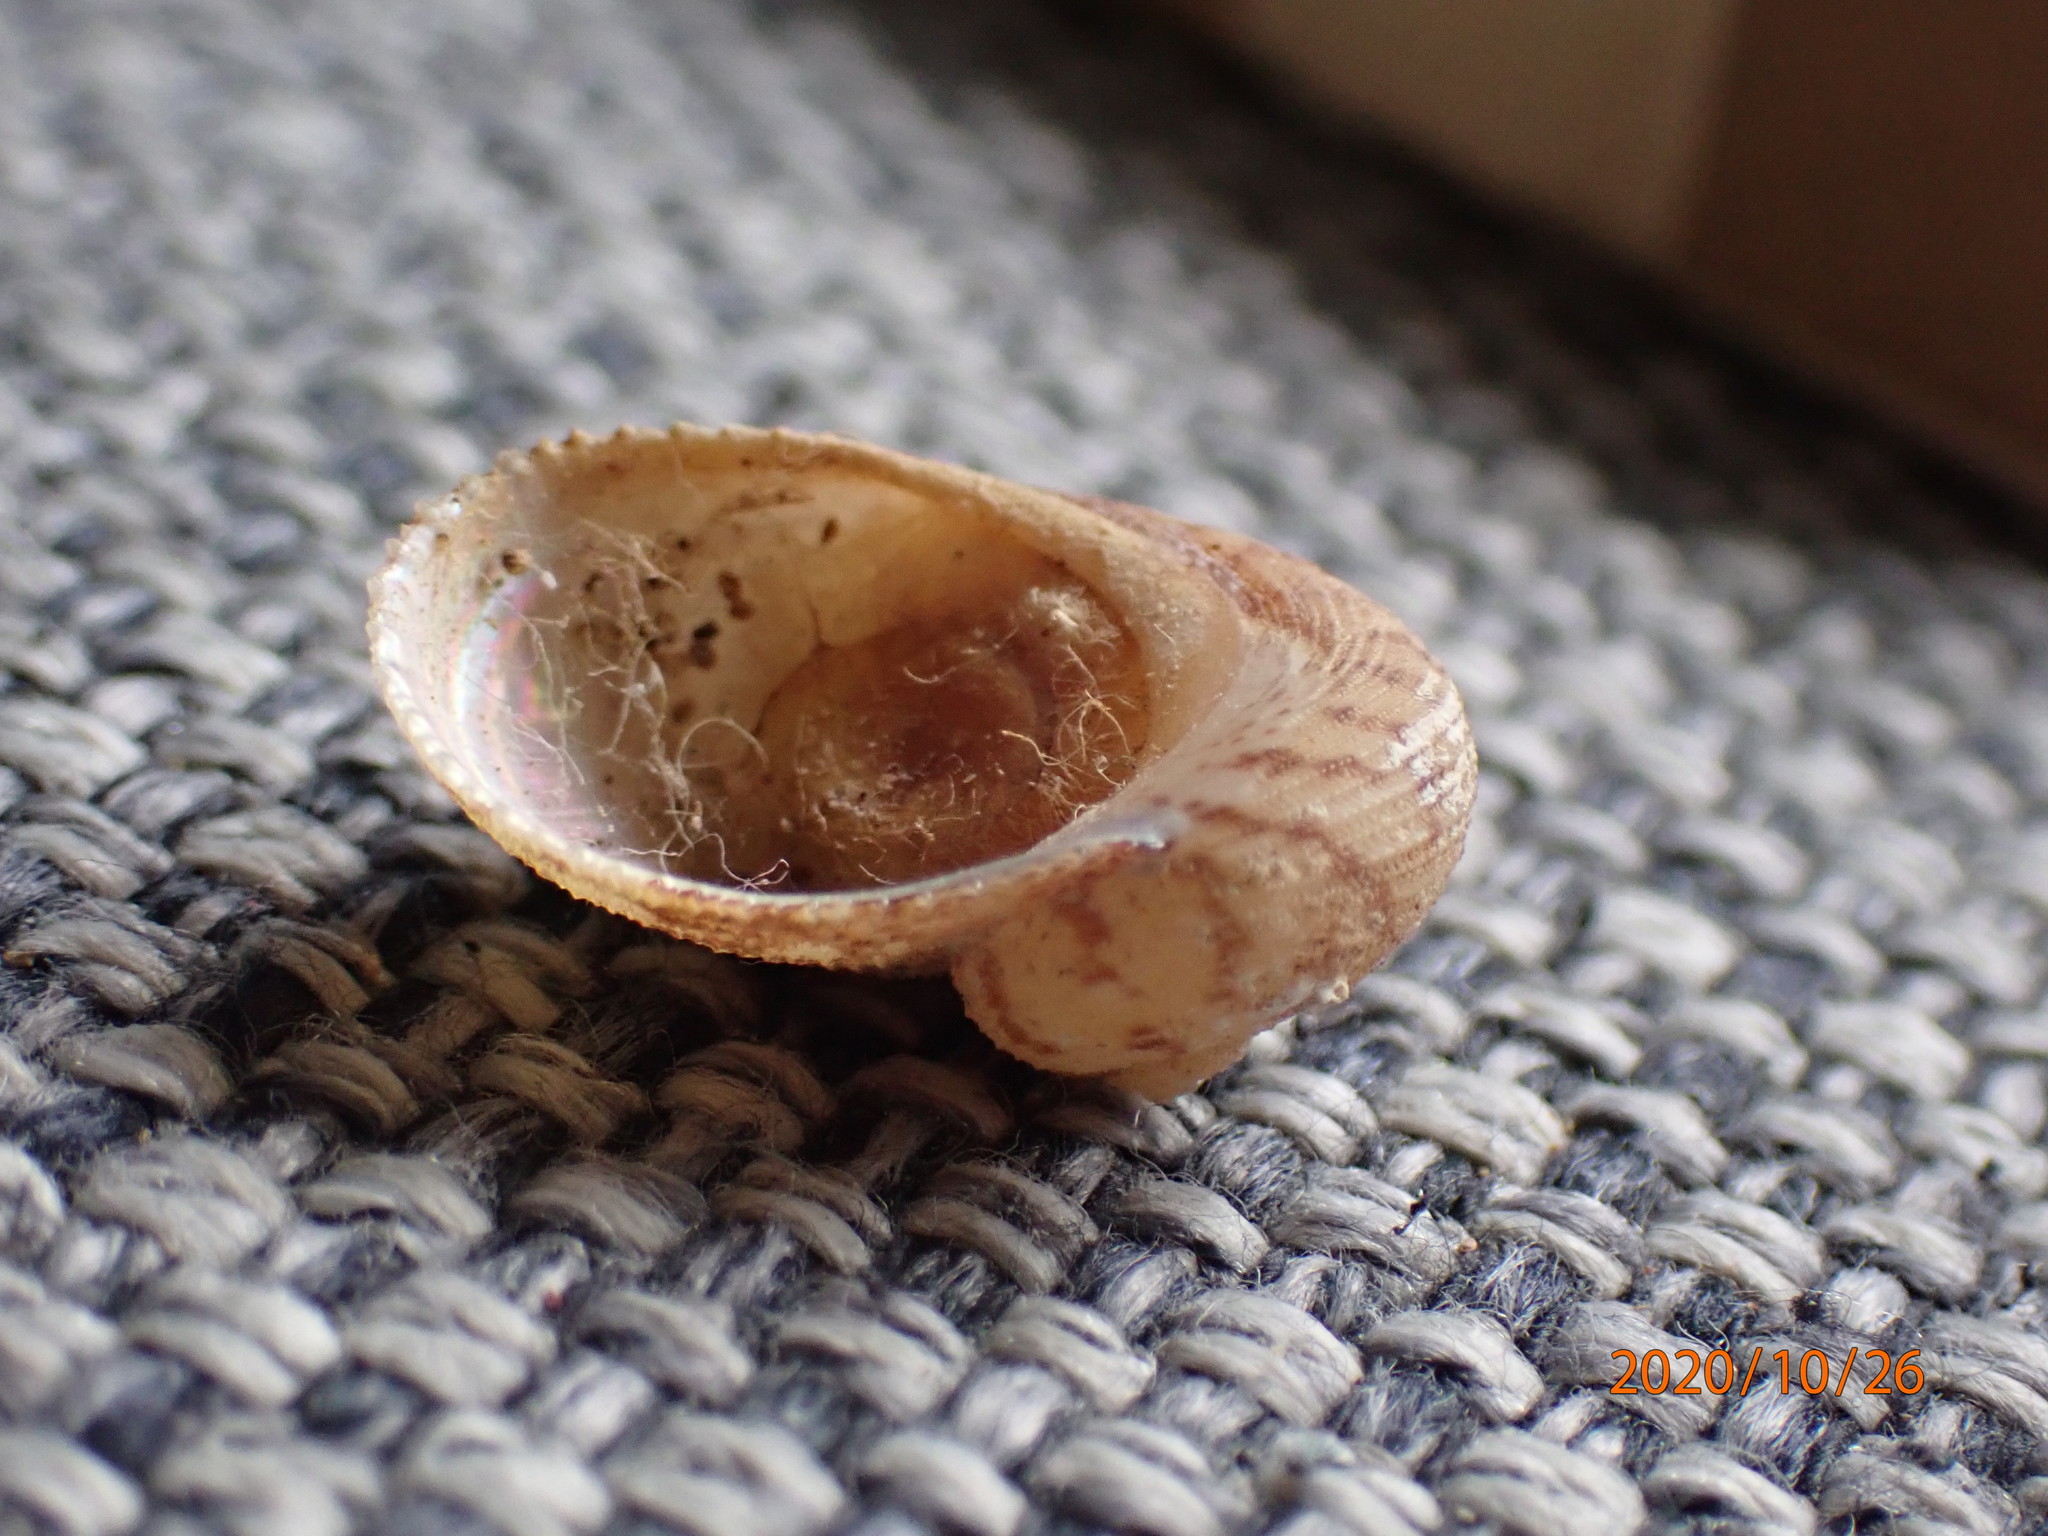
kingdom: Animalia
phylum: Mollusca
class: Gastropoda
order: Seguenziida
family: Chilodontaidae
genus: Granata
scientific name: Granata maculata
